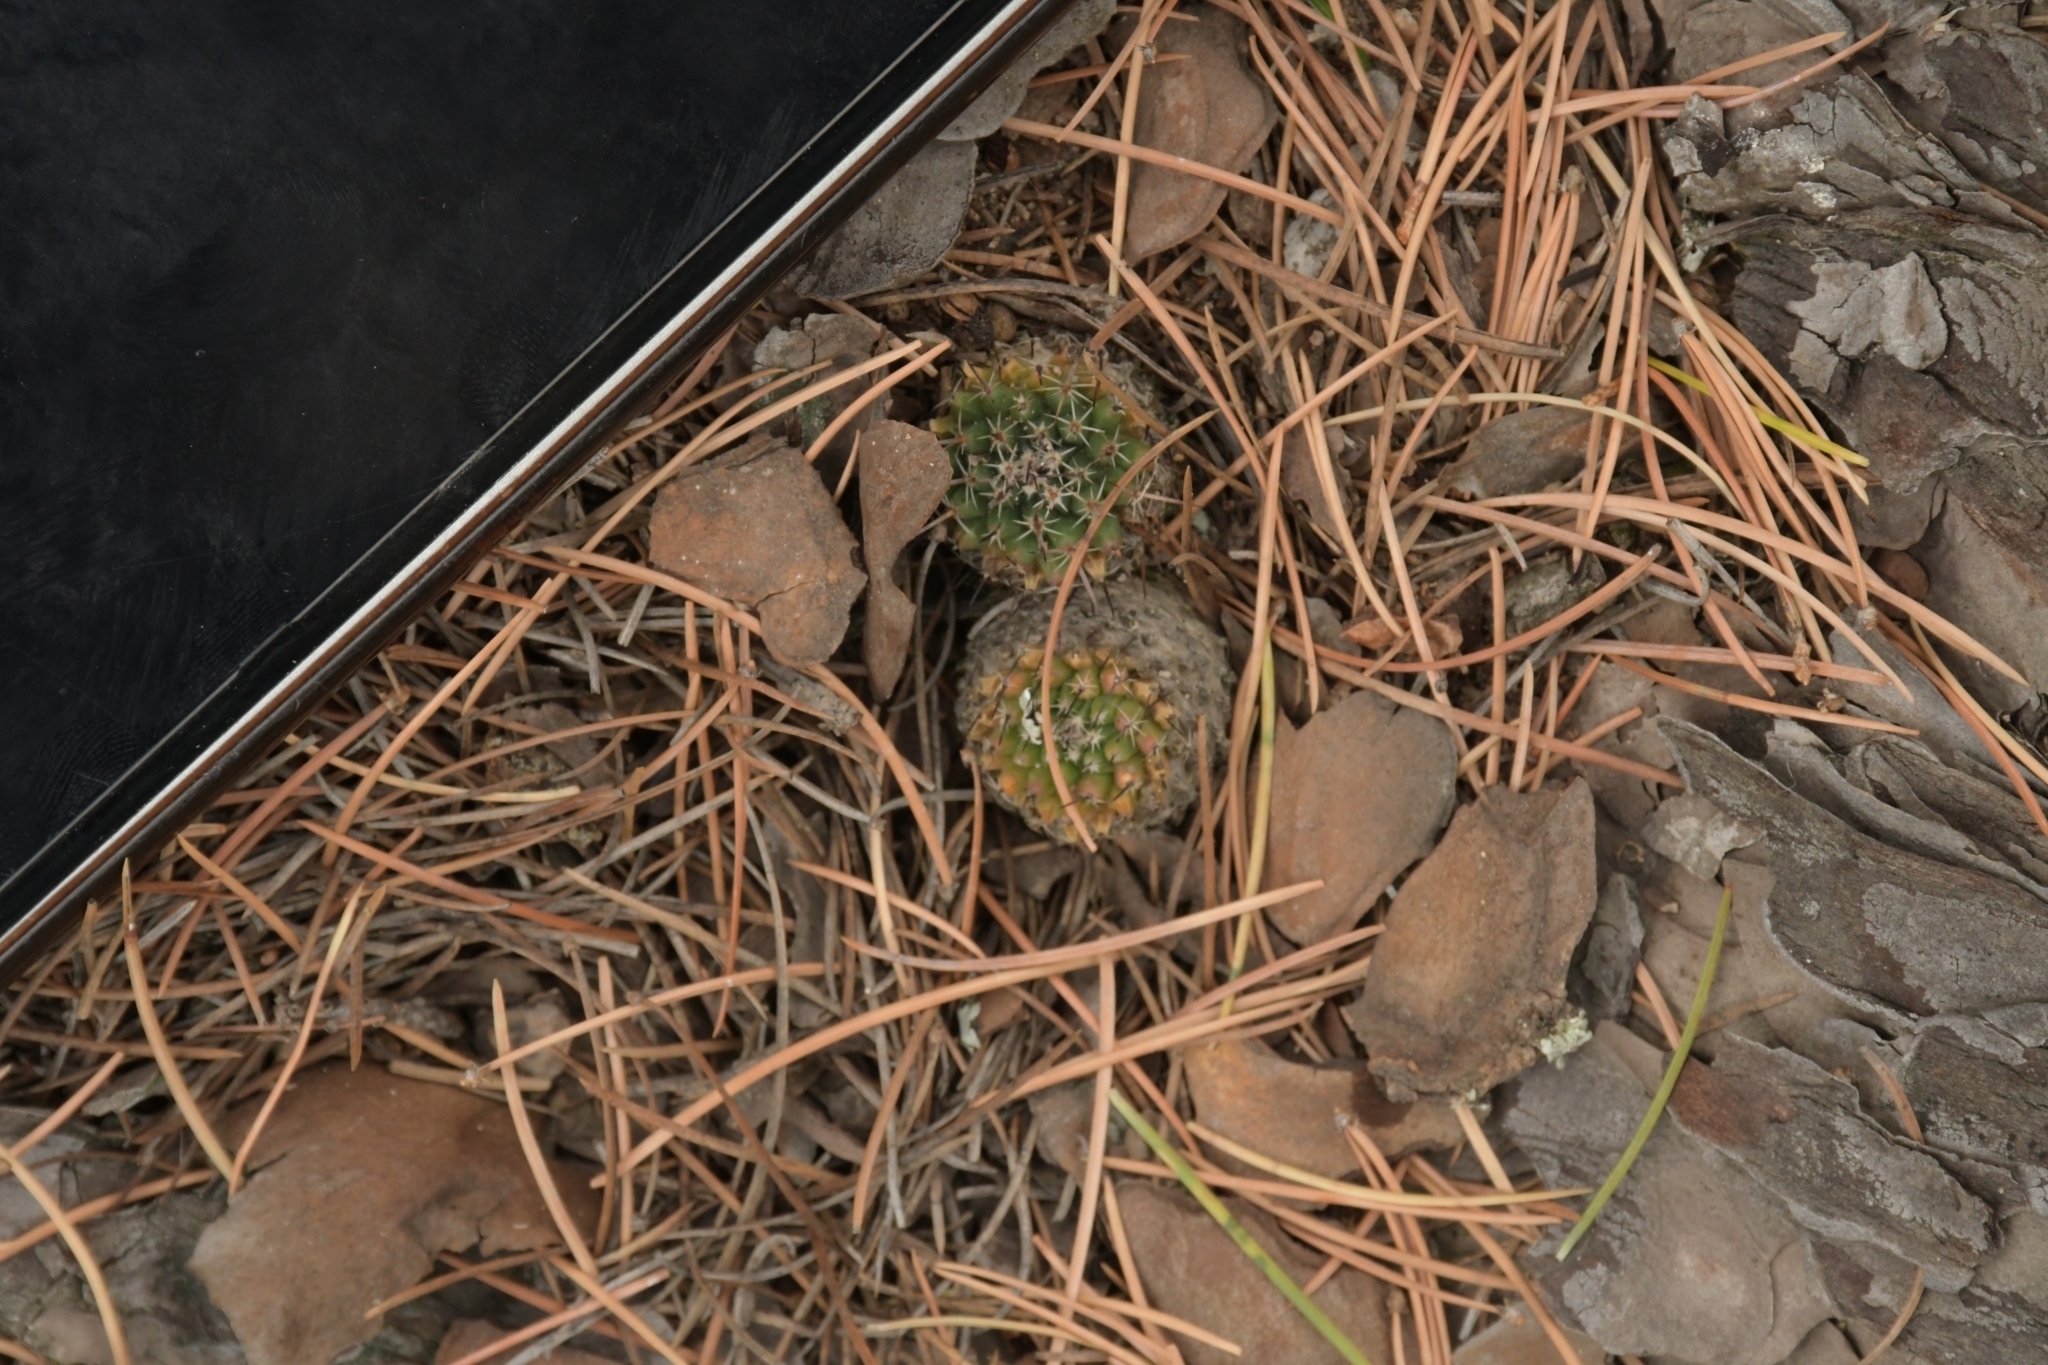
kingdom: Plantae
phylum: Tracheophyta
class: Magnoliopsida
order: Caryophyllales
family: Cactaceae
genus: Mammillaria
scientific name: Mammillaria uncinata
